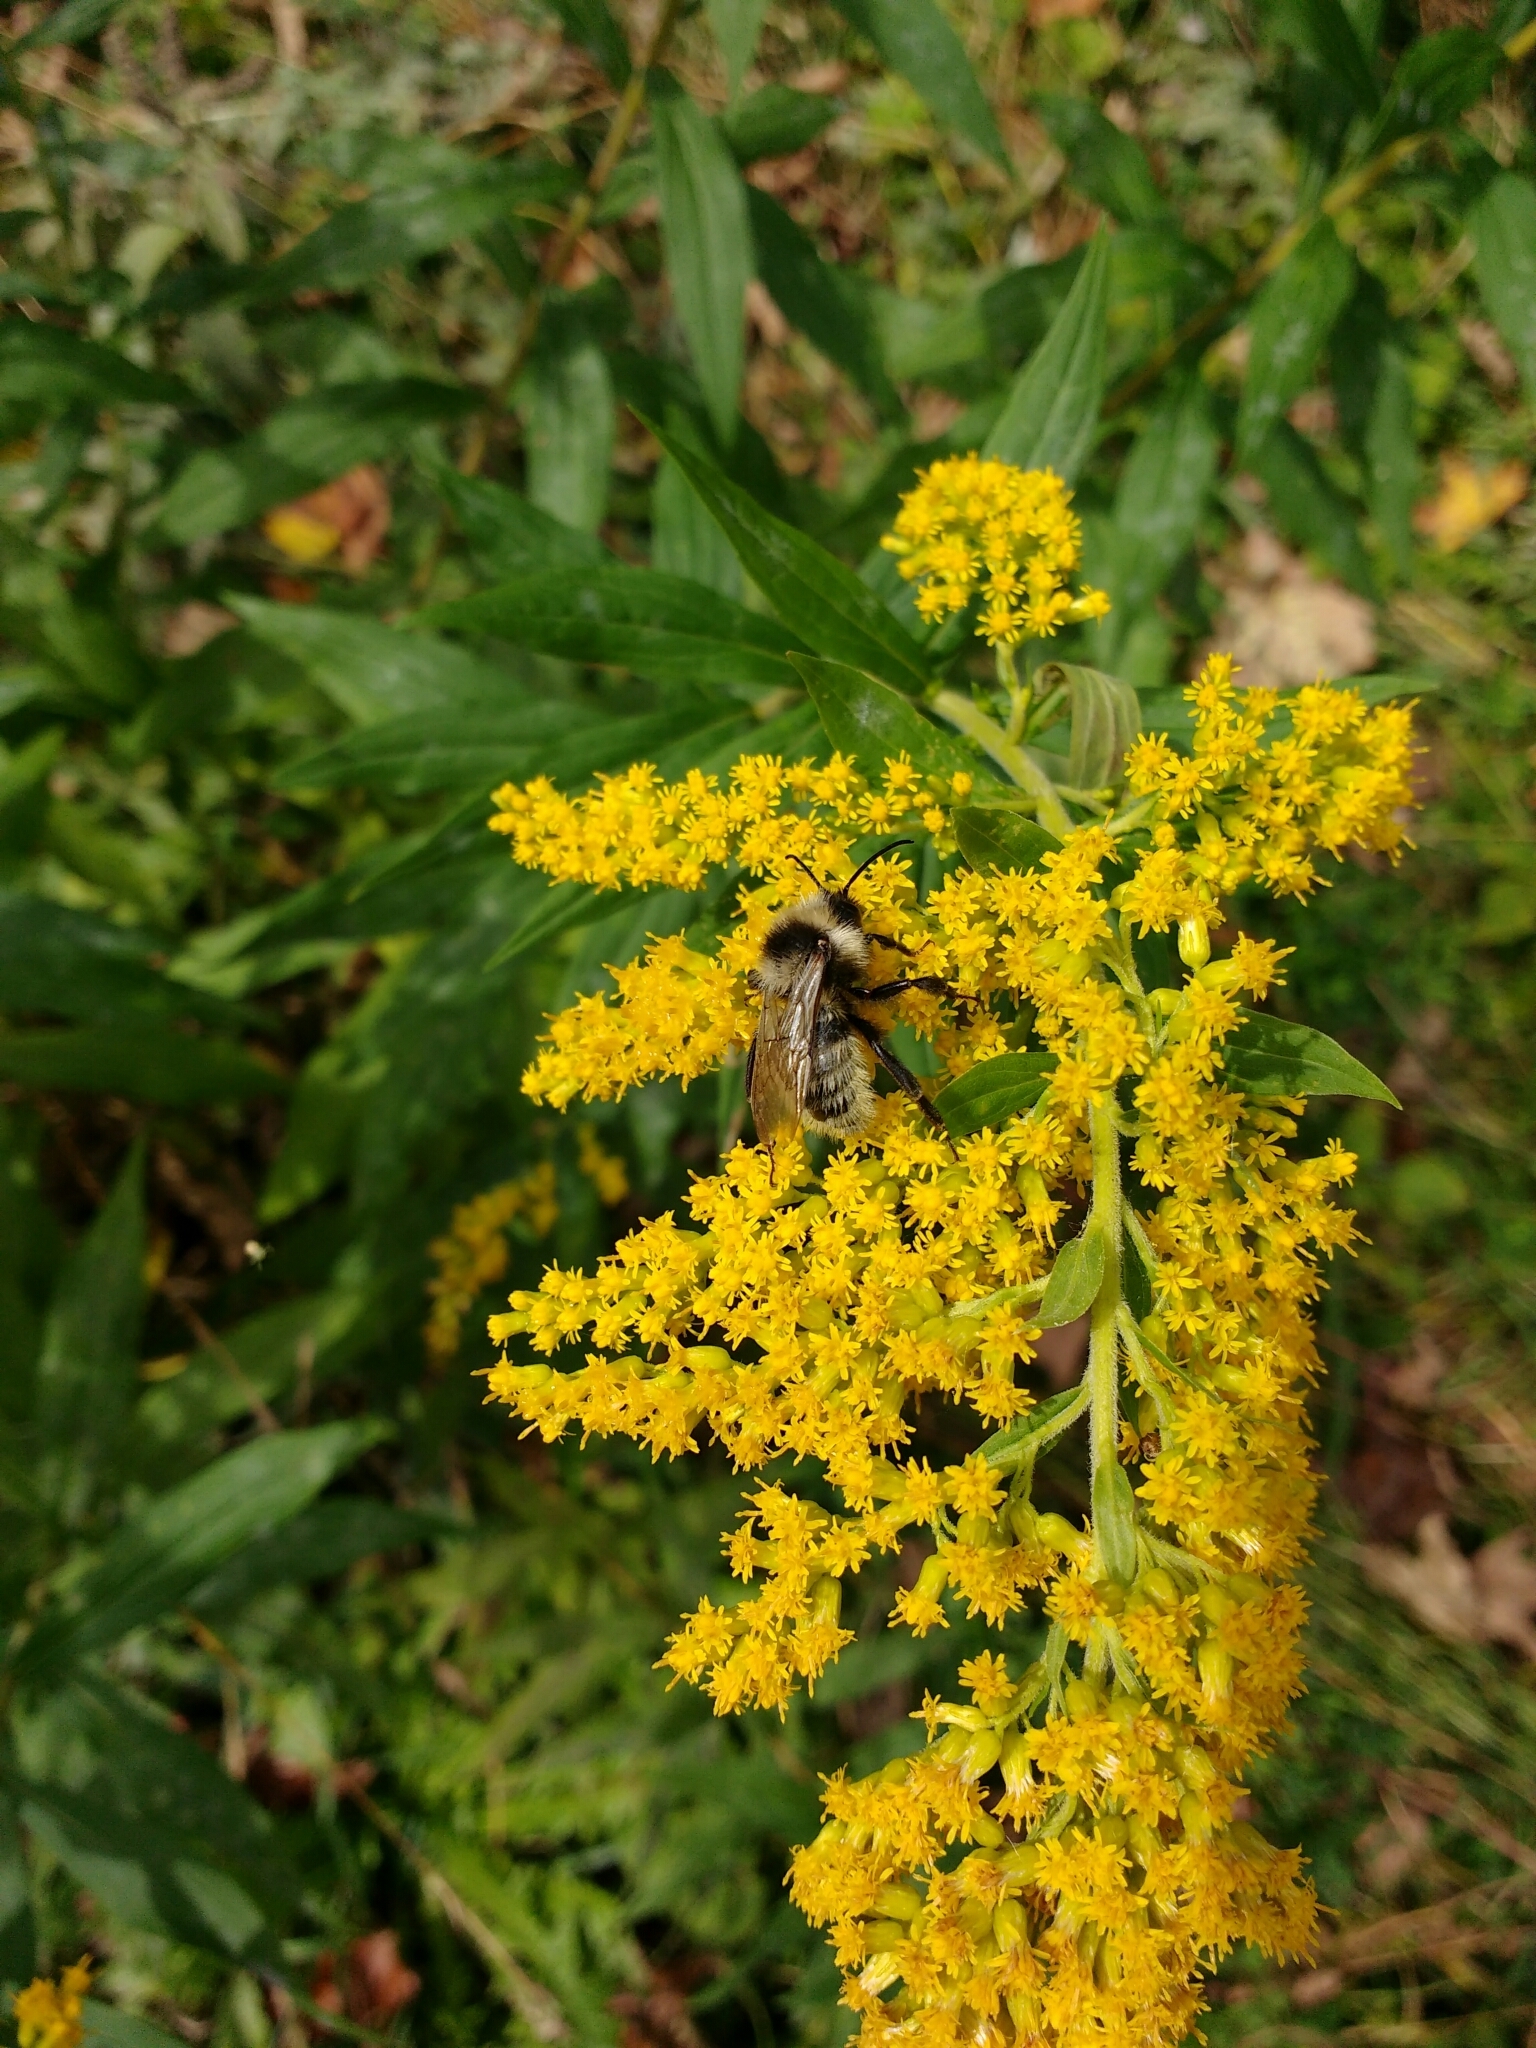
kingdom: Animalia
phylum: Arthropoda
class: Insecta
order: Hymenoptera
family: Apidae
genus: Bombus
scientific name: Bombus campestris
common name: Field cuckoo-bee
